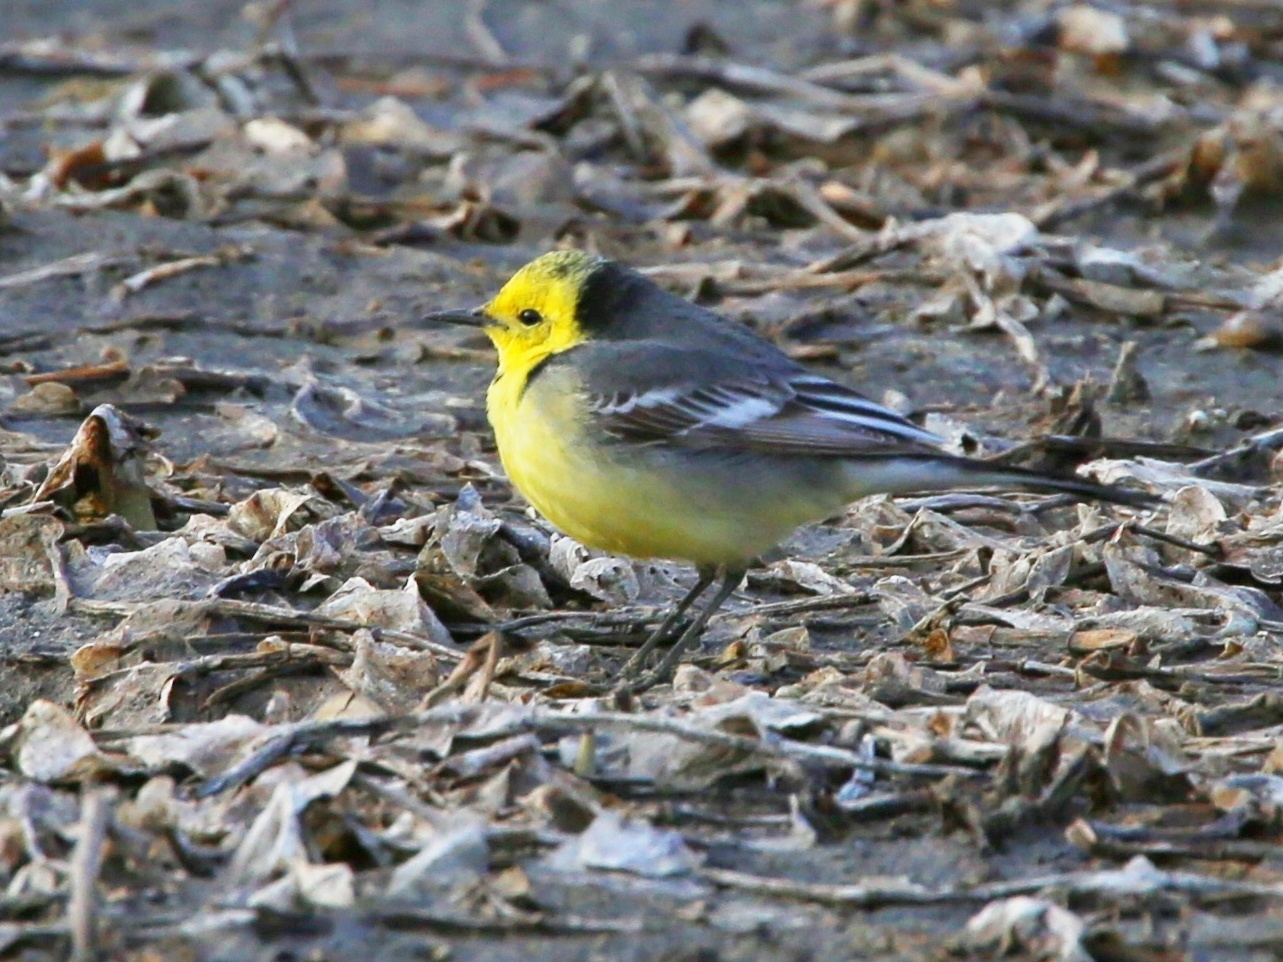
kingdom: Animalia
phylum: Chordata
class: Aves
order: Passeriformes
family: Motacillidae
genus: Motacilla
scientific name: Motacilla citreola
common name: Citrine wagtail
